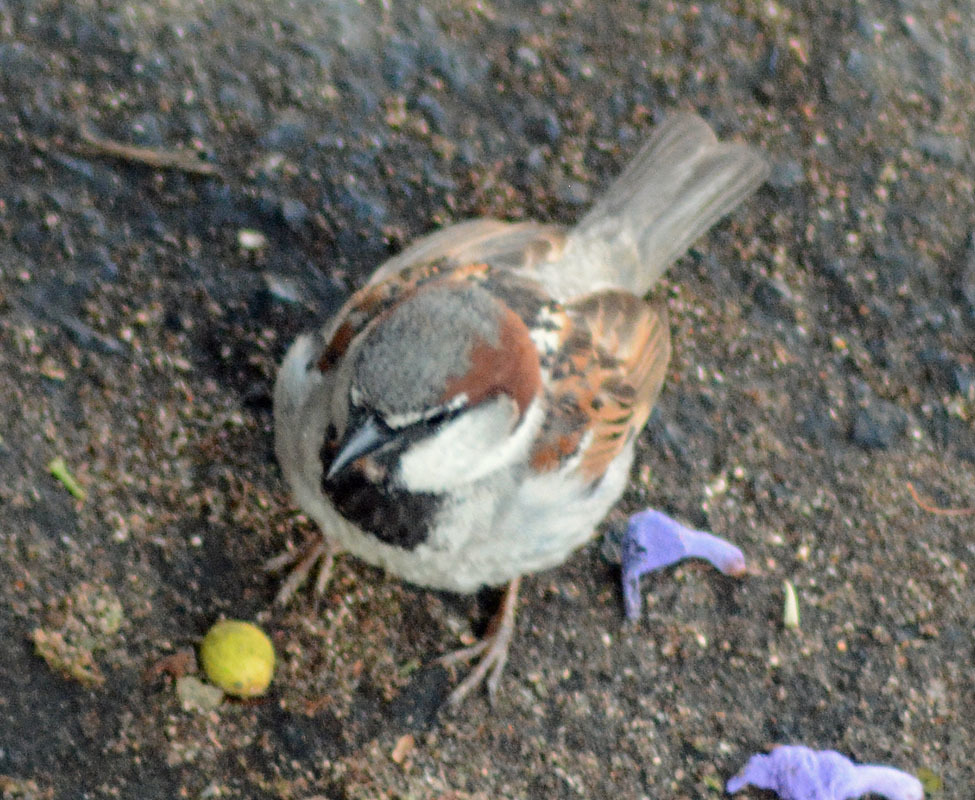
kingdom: Animalia
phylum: Chordata
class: Aves
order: Passeriformes
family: Passeridae
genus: Passer
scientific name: Passer domesticus
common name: House sparrow
